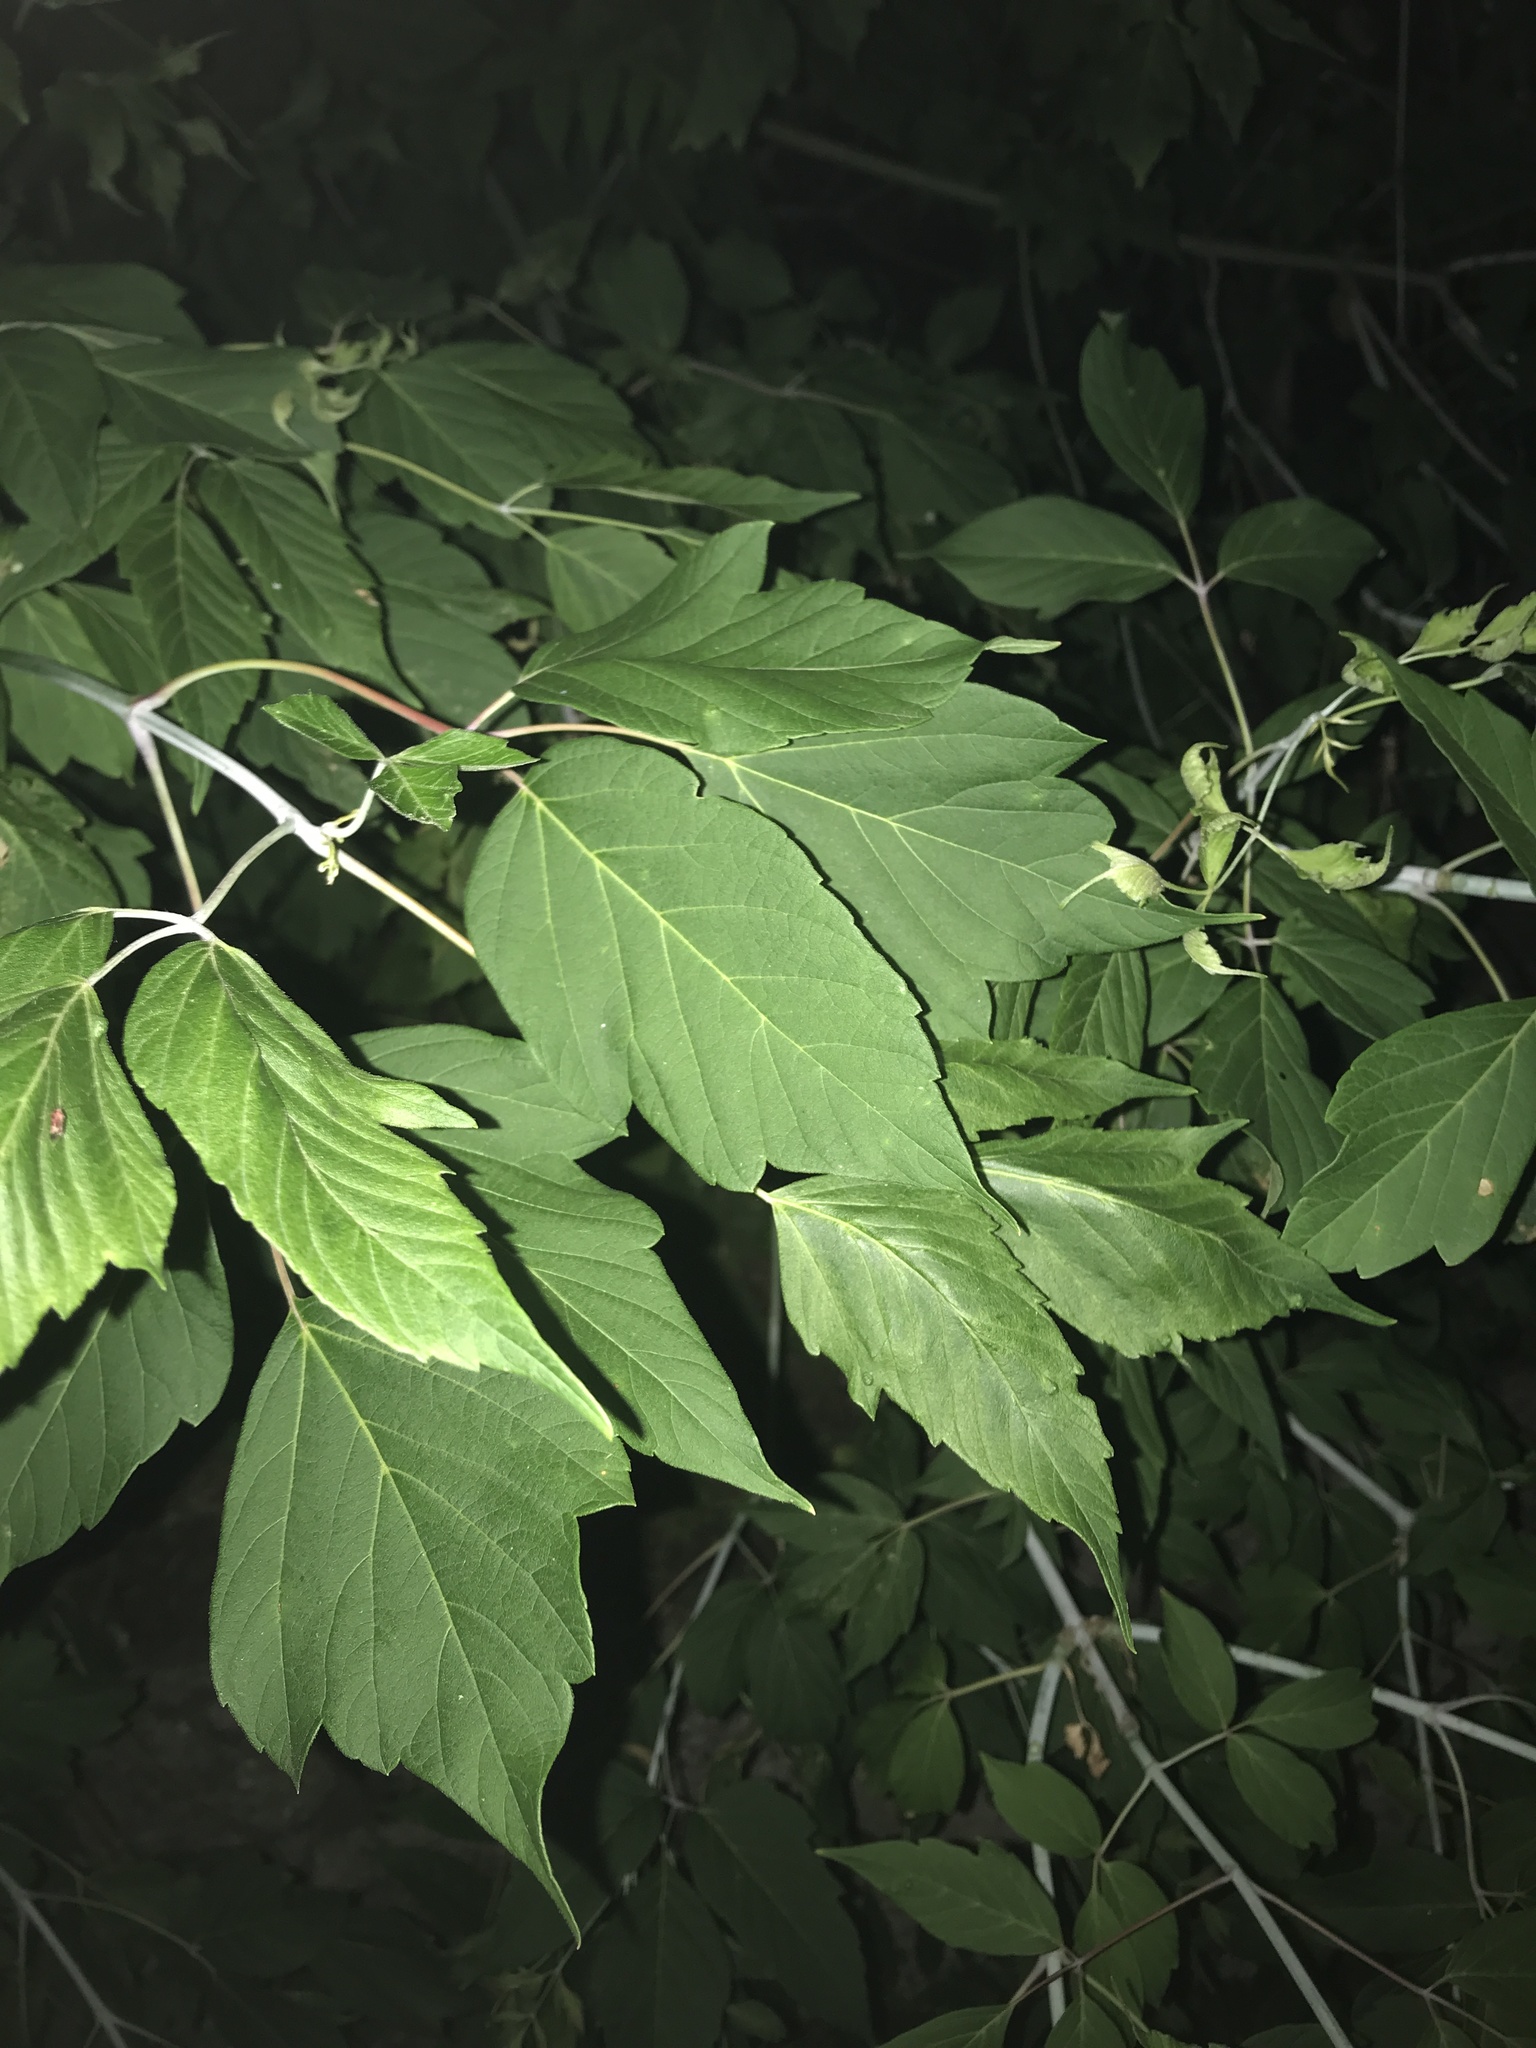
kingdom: Plantae
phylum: Tracheophyta
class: Magnoliopsida
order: Sapindales
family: Sapindaceae
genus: Acer
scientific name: Acer negundo
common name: Ashleaf maple
